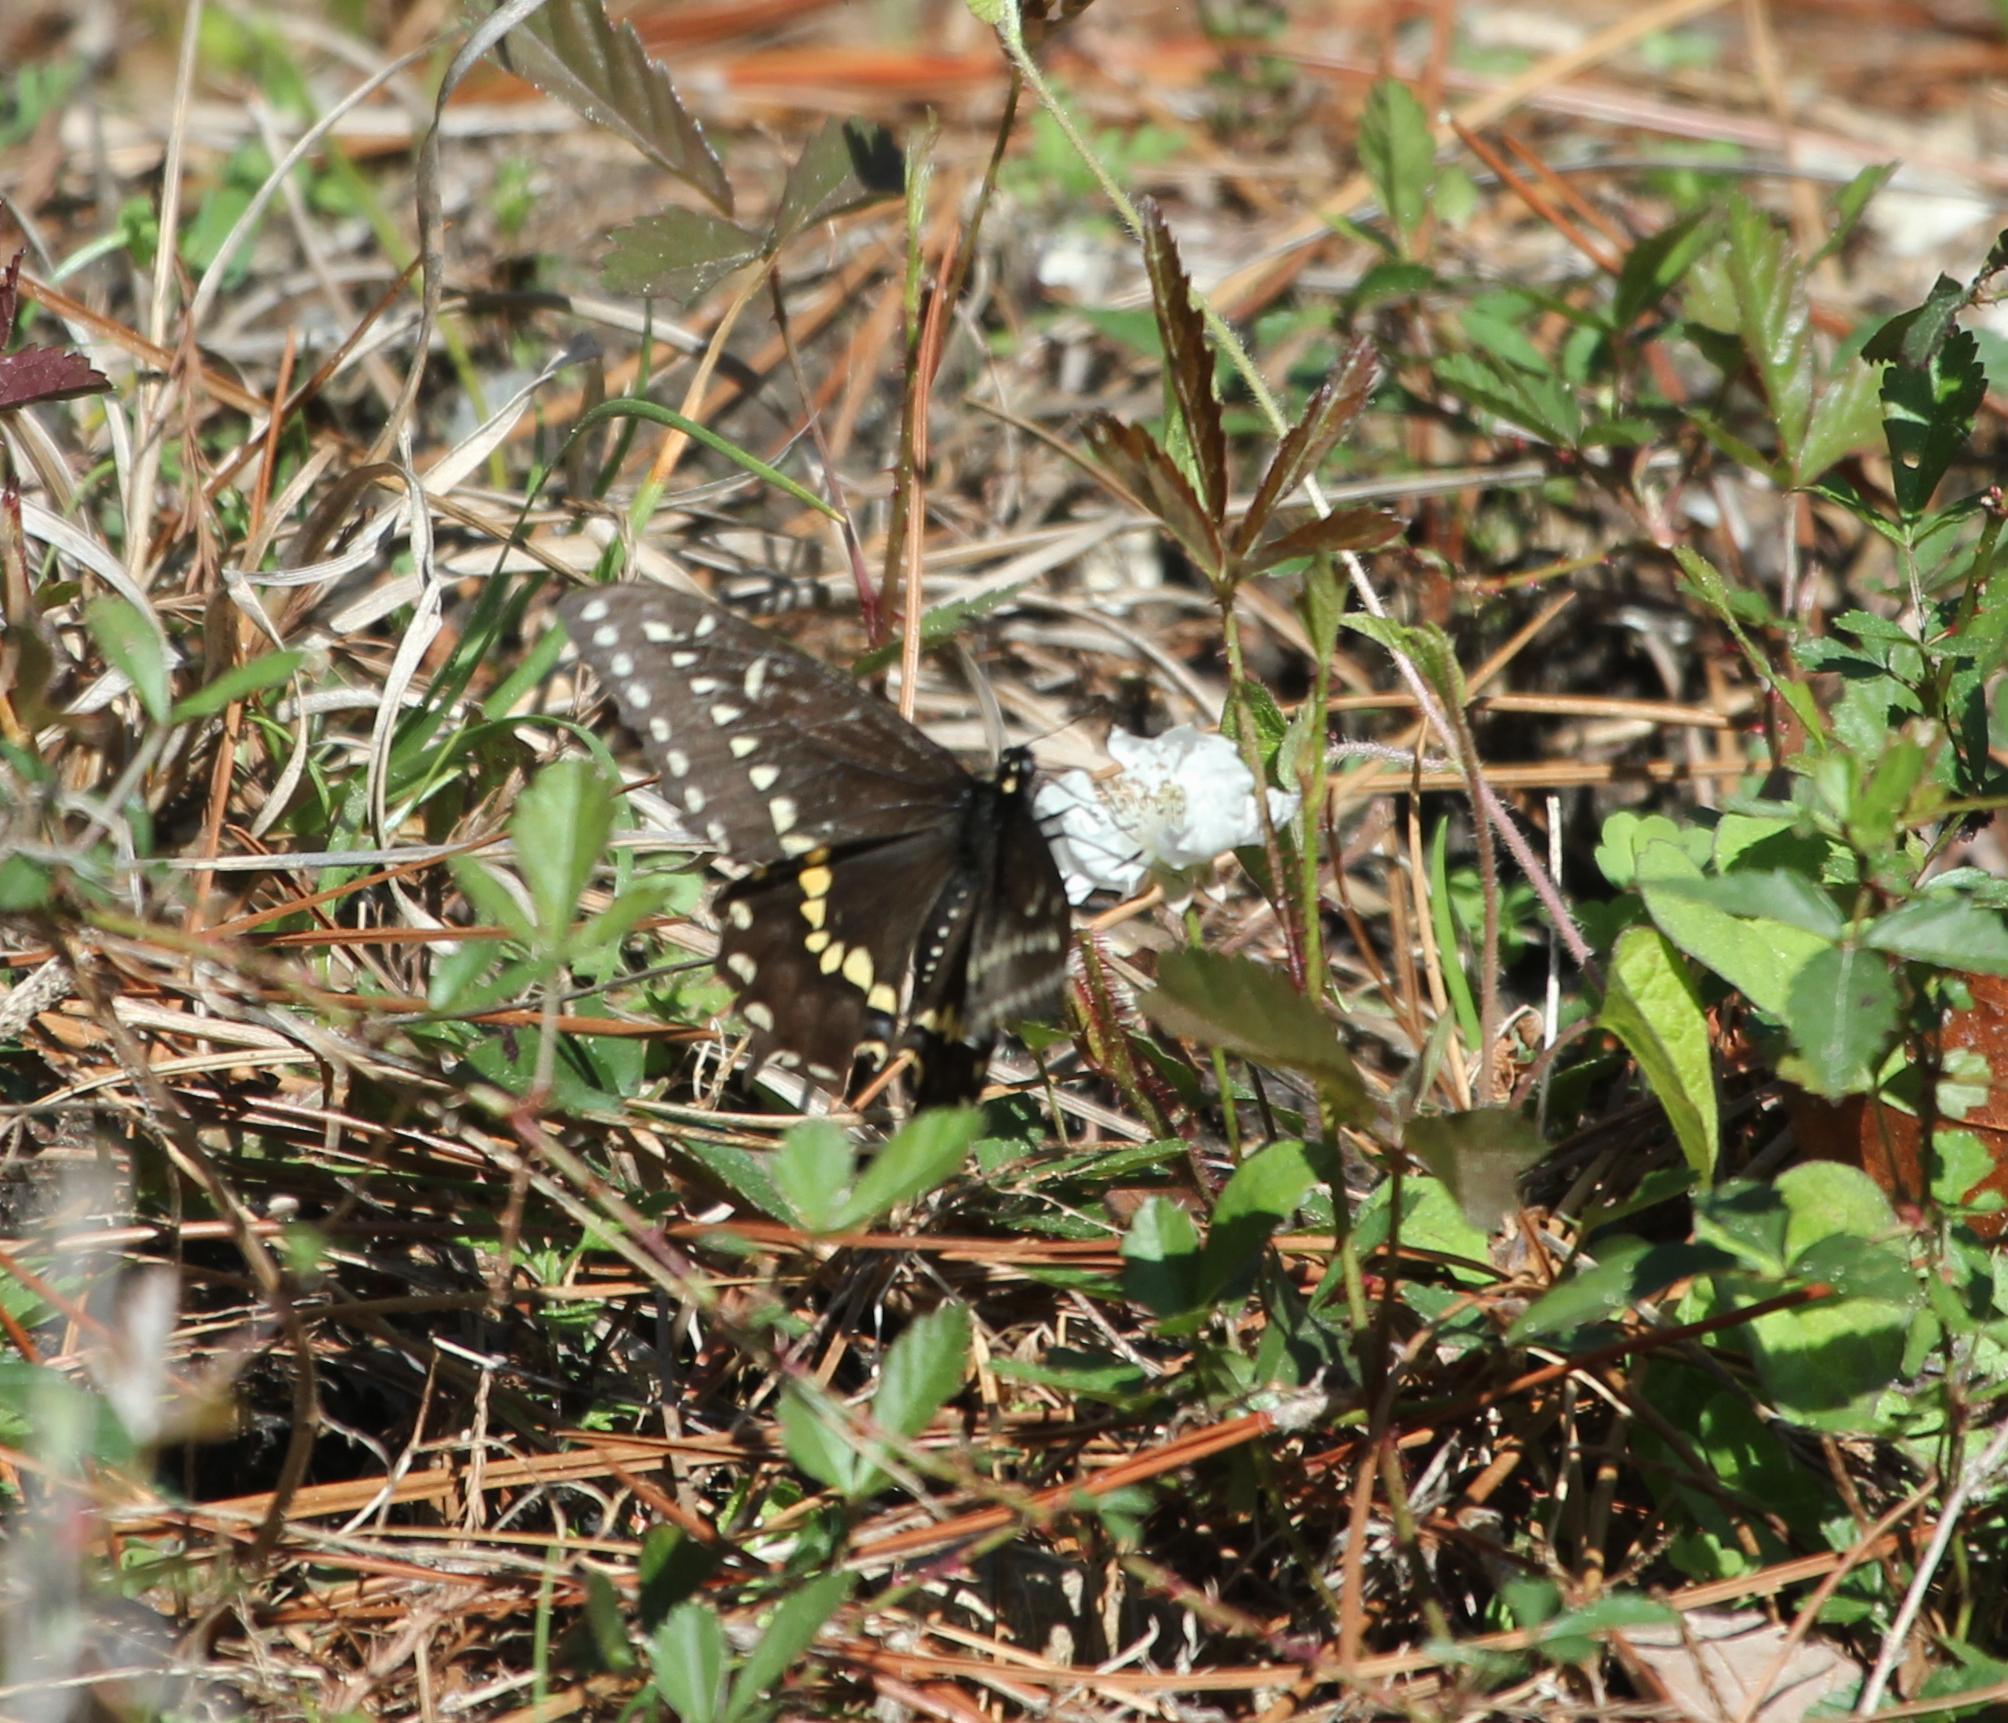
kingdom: Animalia
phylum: Arthropoda
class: Insecta
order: Lepidoptera
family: Papilionidae
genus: Papilio
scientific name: Papilio polyxenes
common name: Black swallowtail
